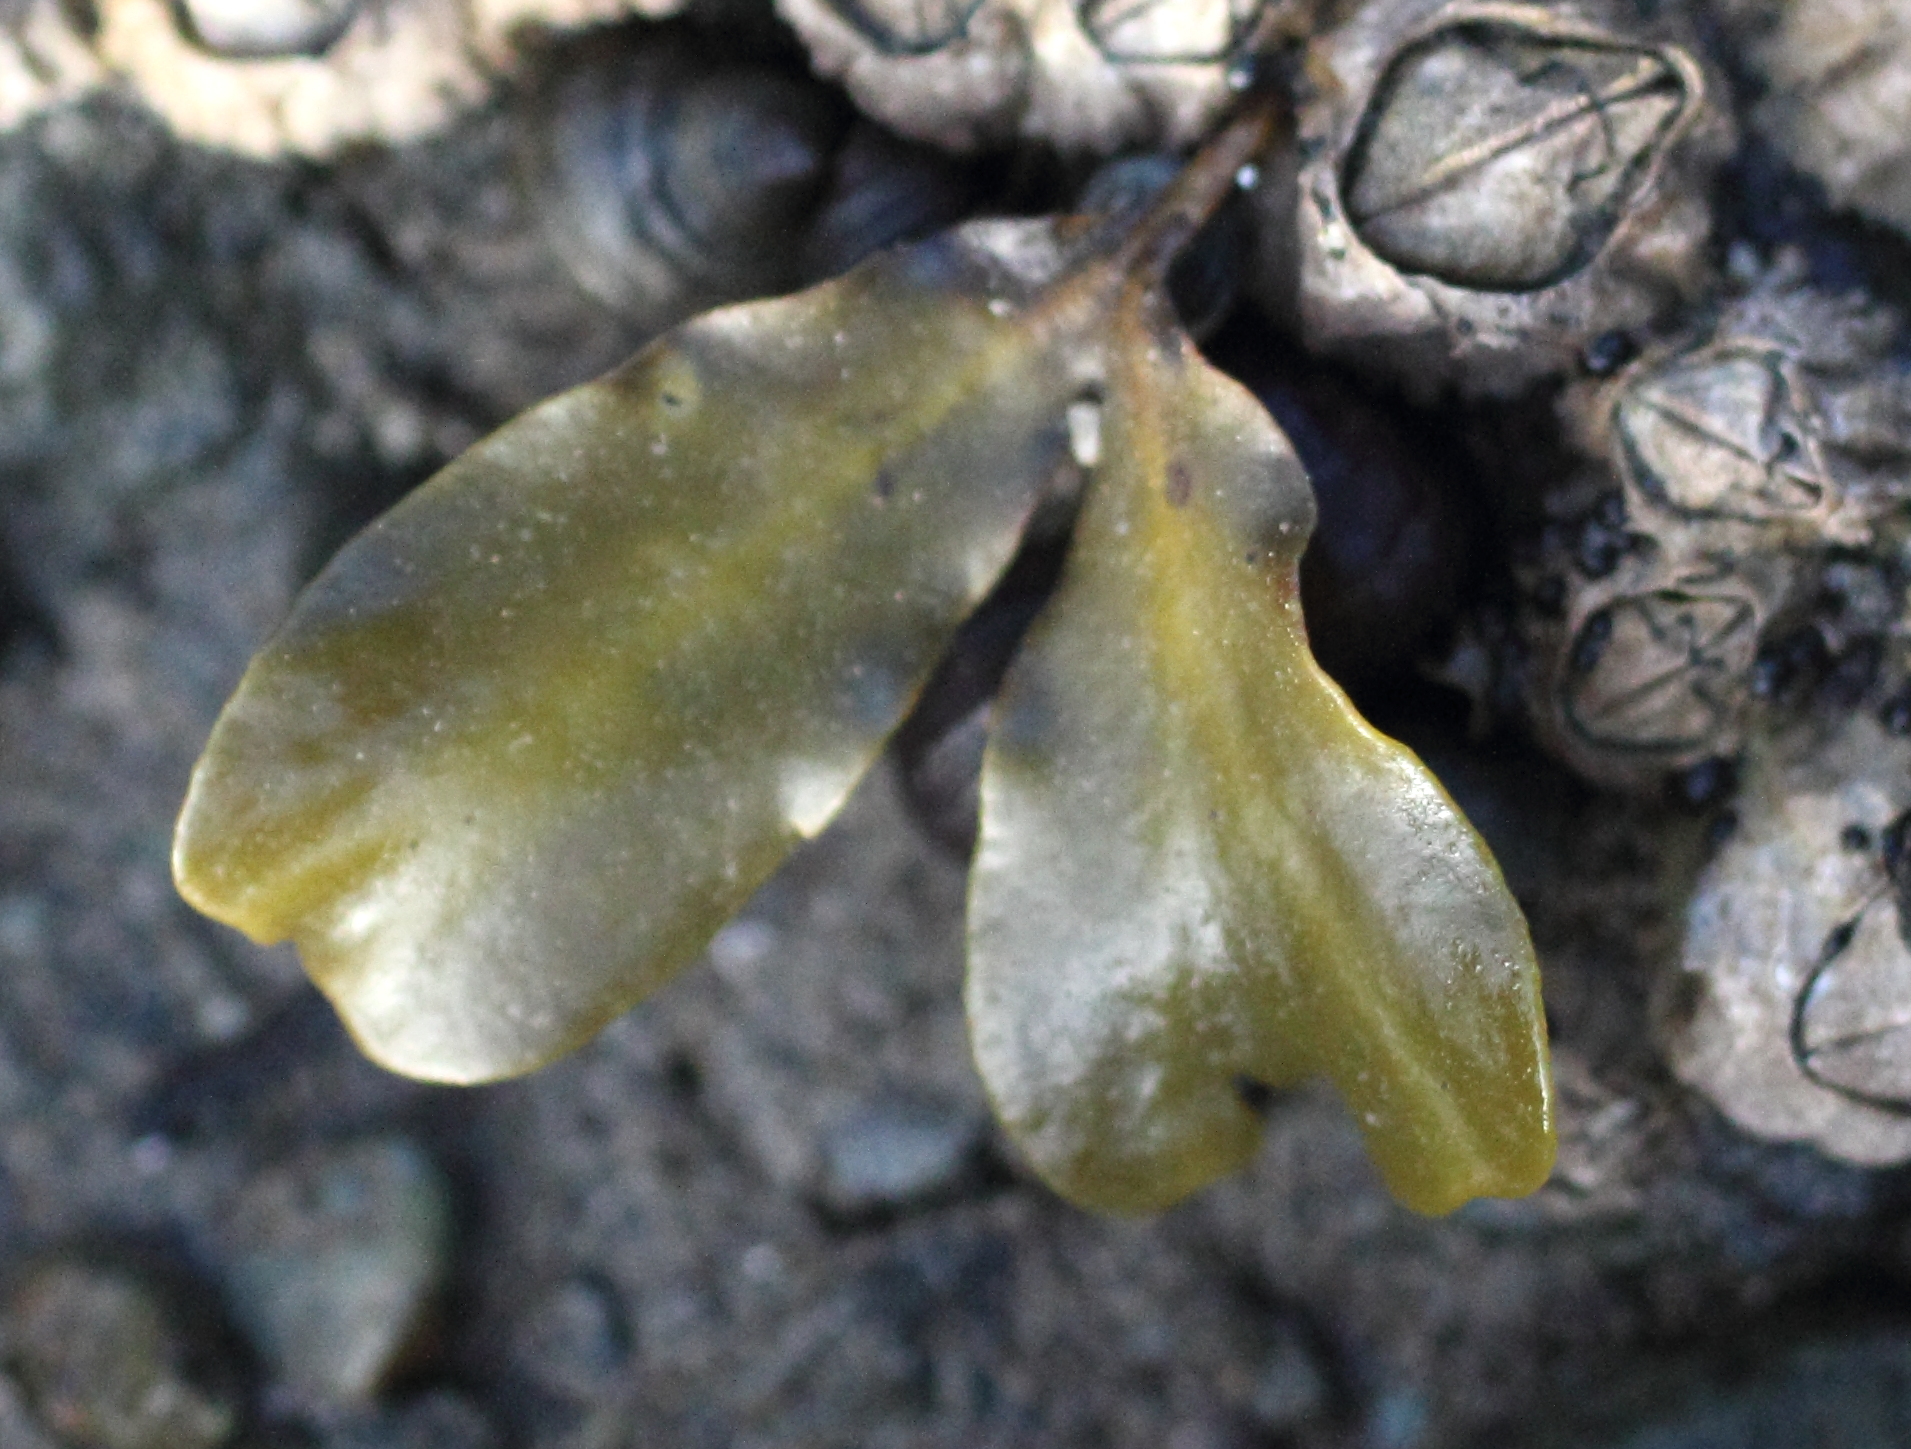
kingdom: Chromista
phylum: Ochrophyta
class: Phaeophyceae
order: Fucales
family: Fucaceae
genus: Fucus
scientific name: Fucus distichus
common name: Rockweed
